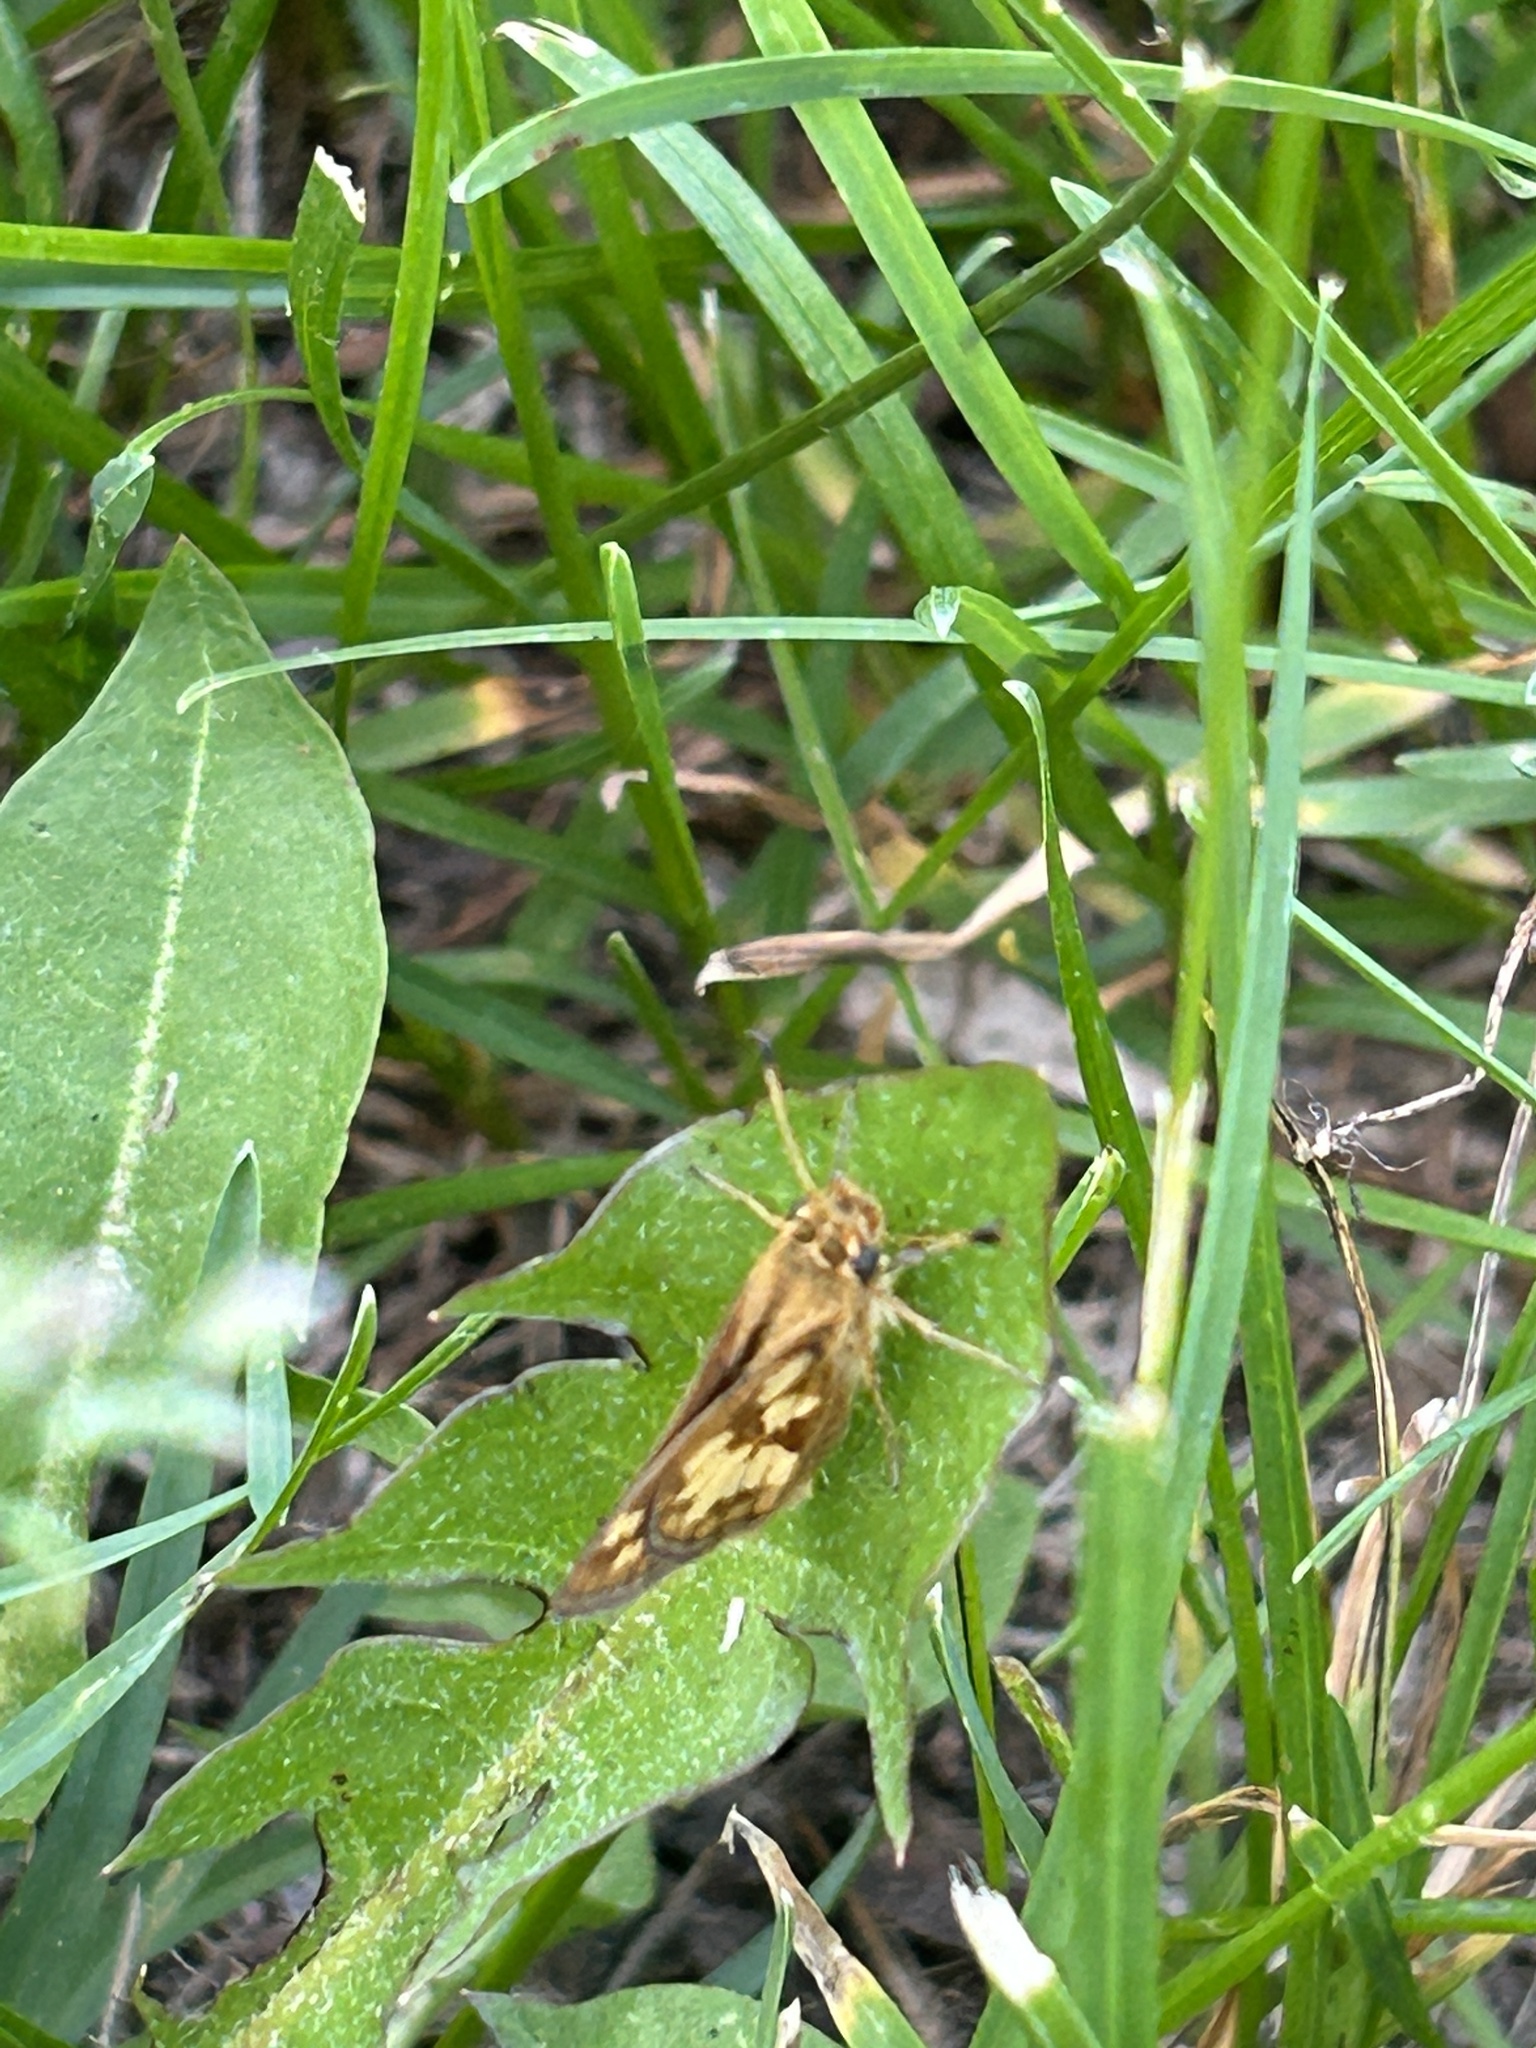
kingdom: Animalia
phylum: Arthropoda
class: Insecta
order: Lepidoptera
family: Hesperiidae
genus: Polites
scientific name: Polites coras
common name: Peck's skipper
